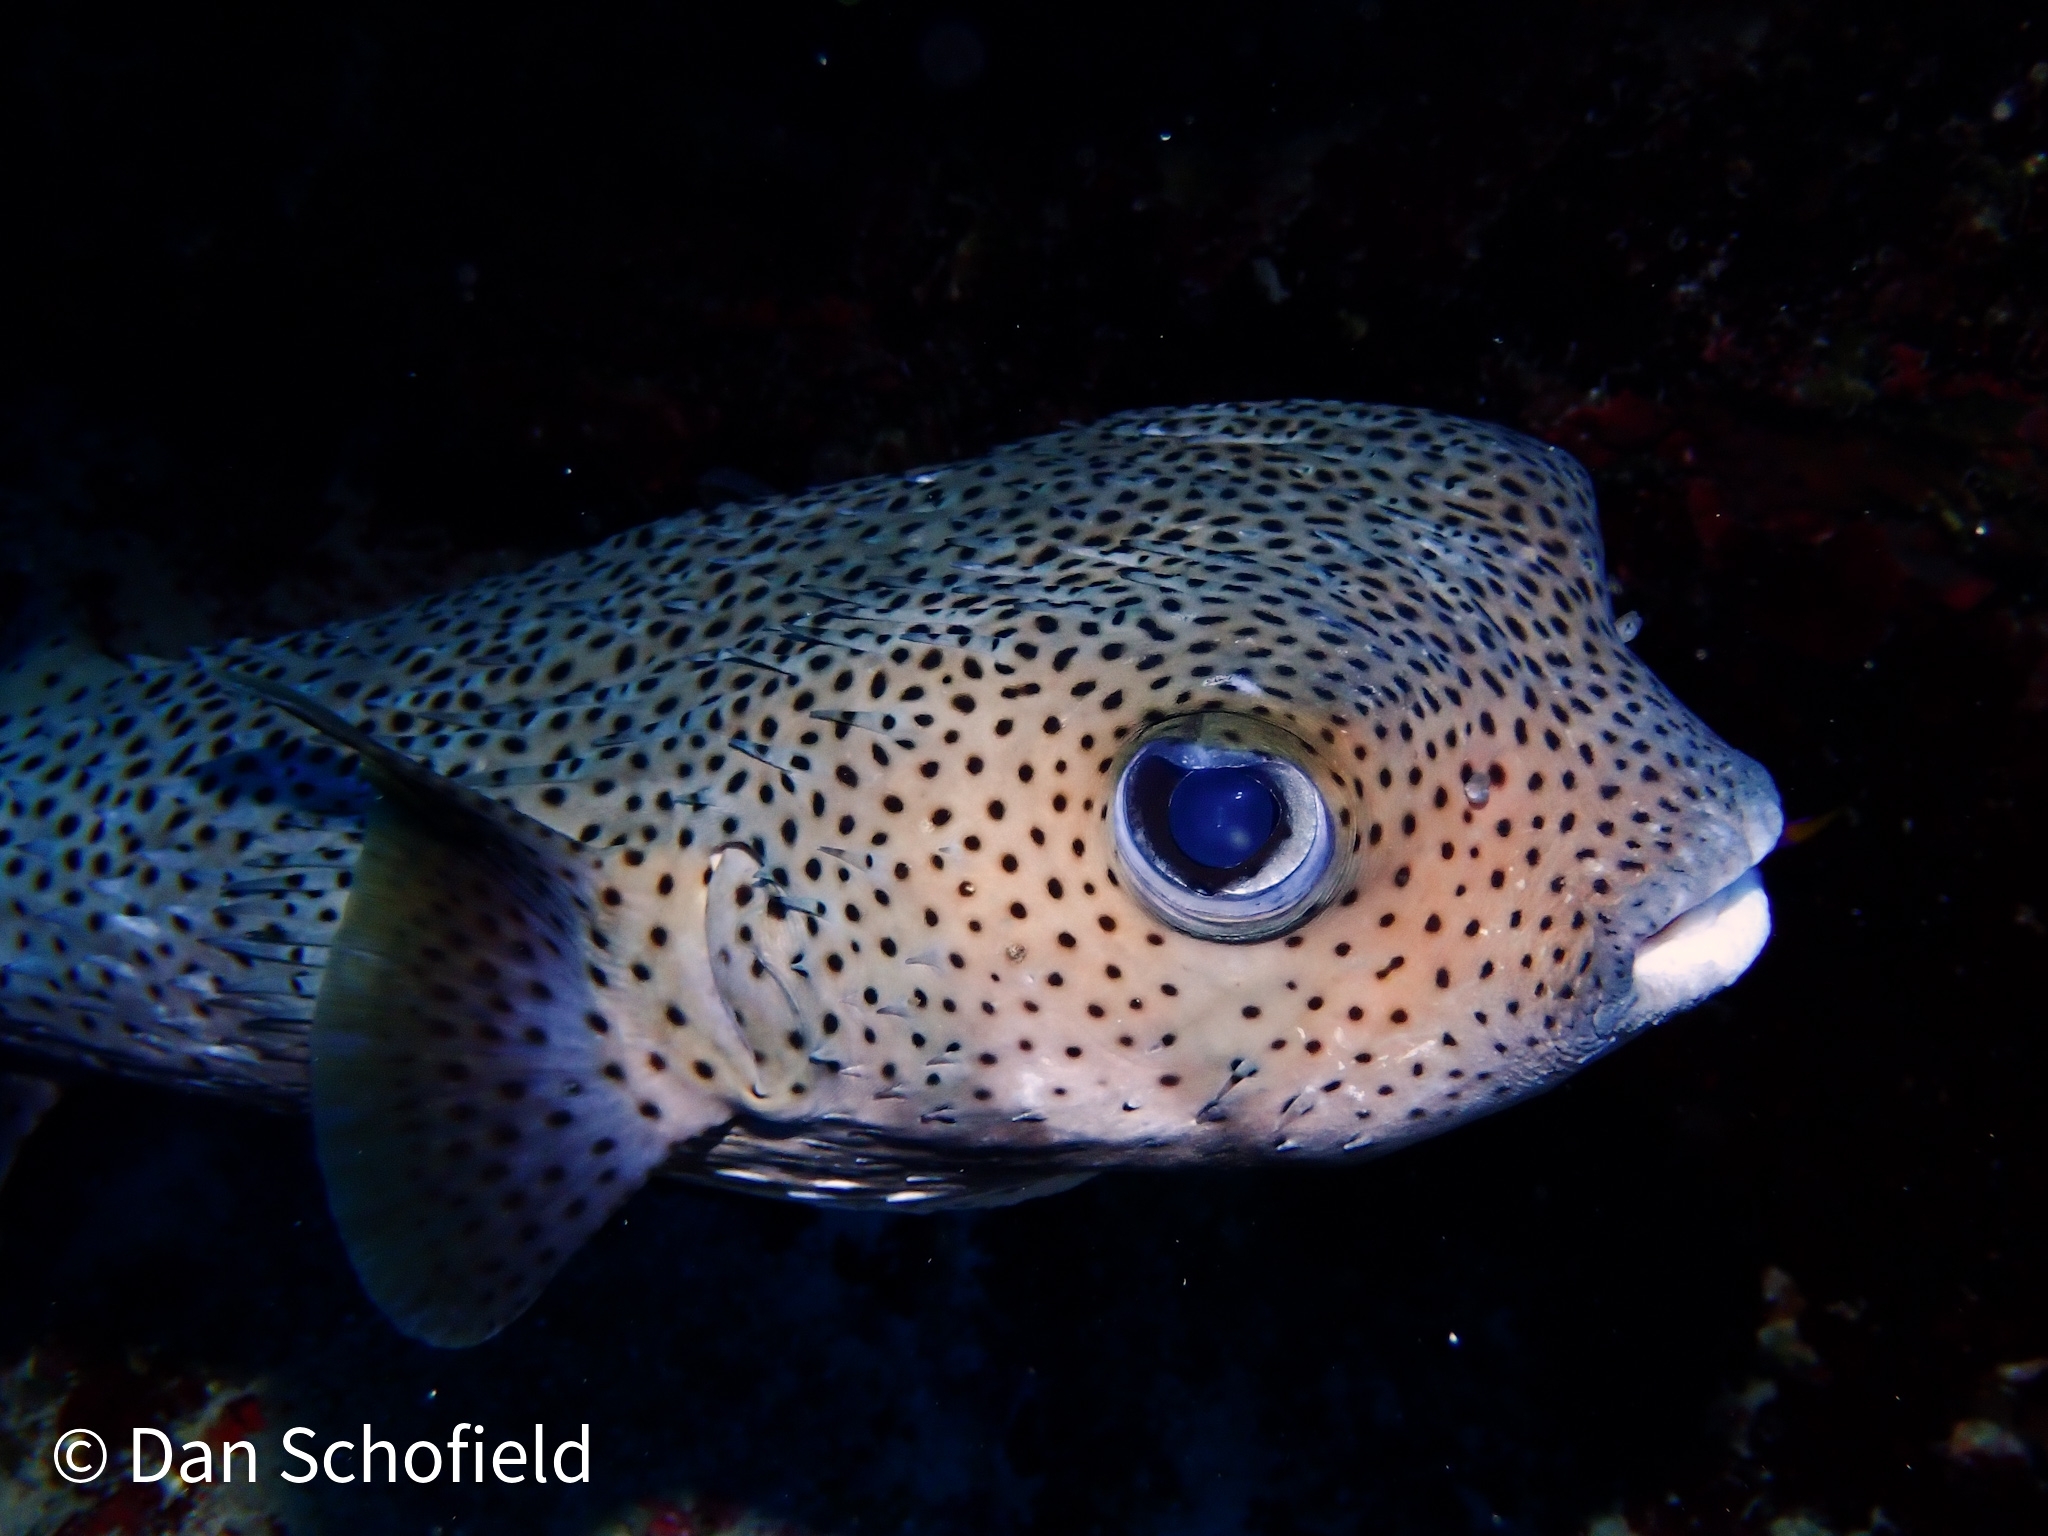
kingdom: Animalia
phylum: Chordata
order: Tetraodontiformes
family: Diodontidae
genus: Diodon
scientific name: Diodon hystrix
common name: Giant porcupinefish
